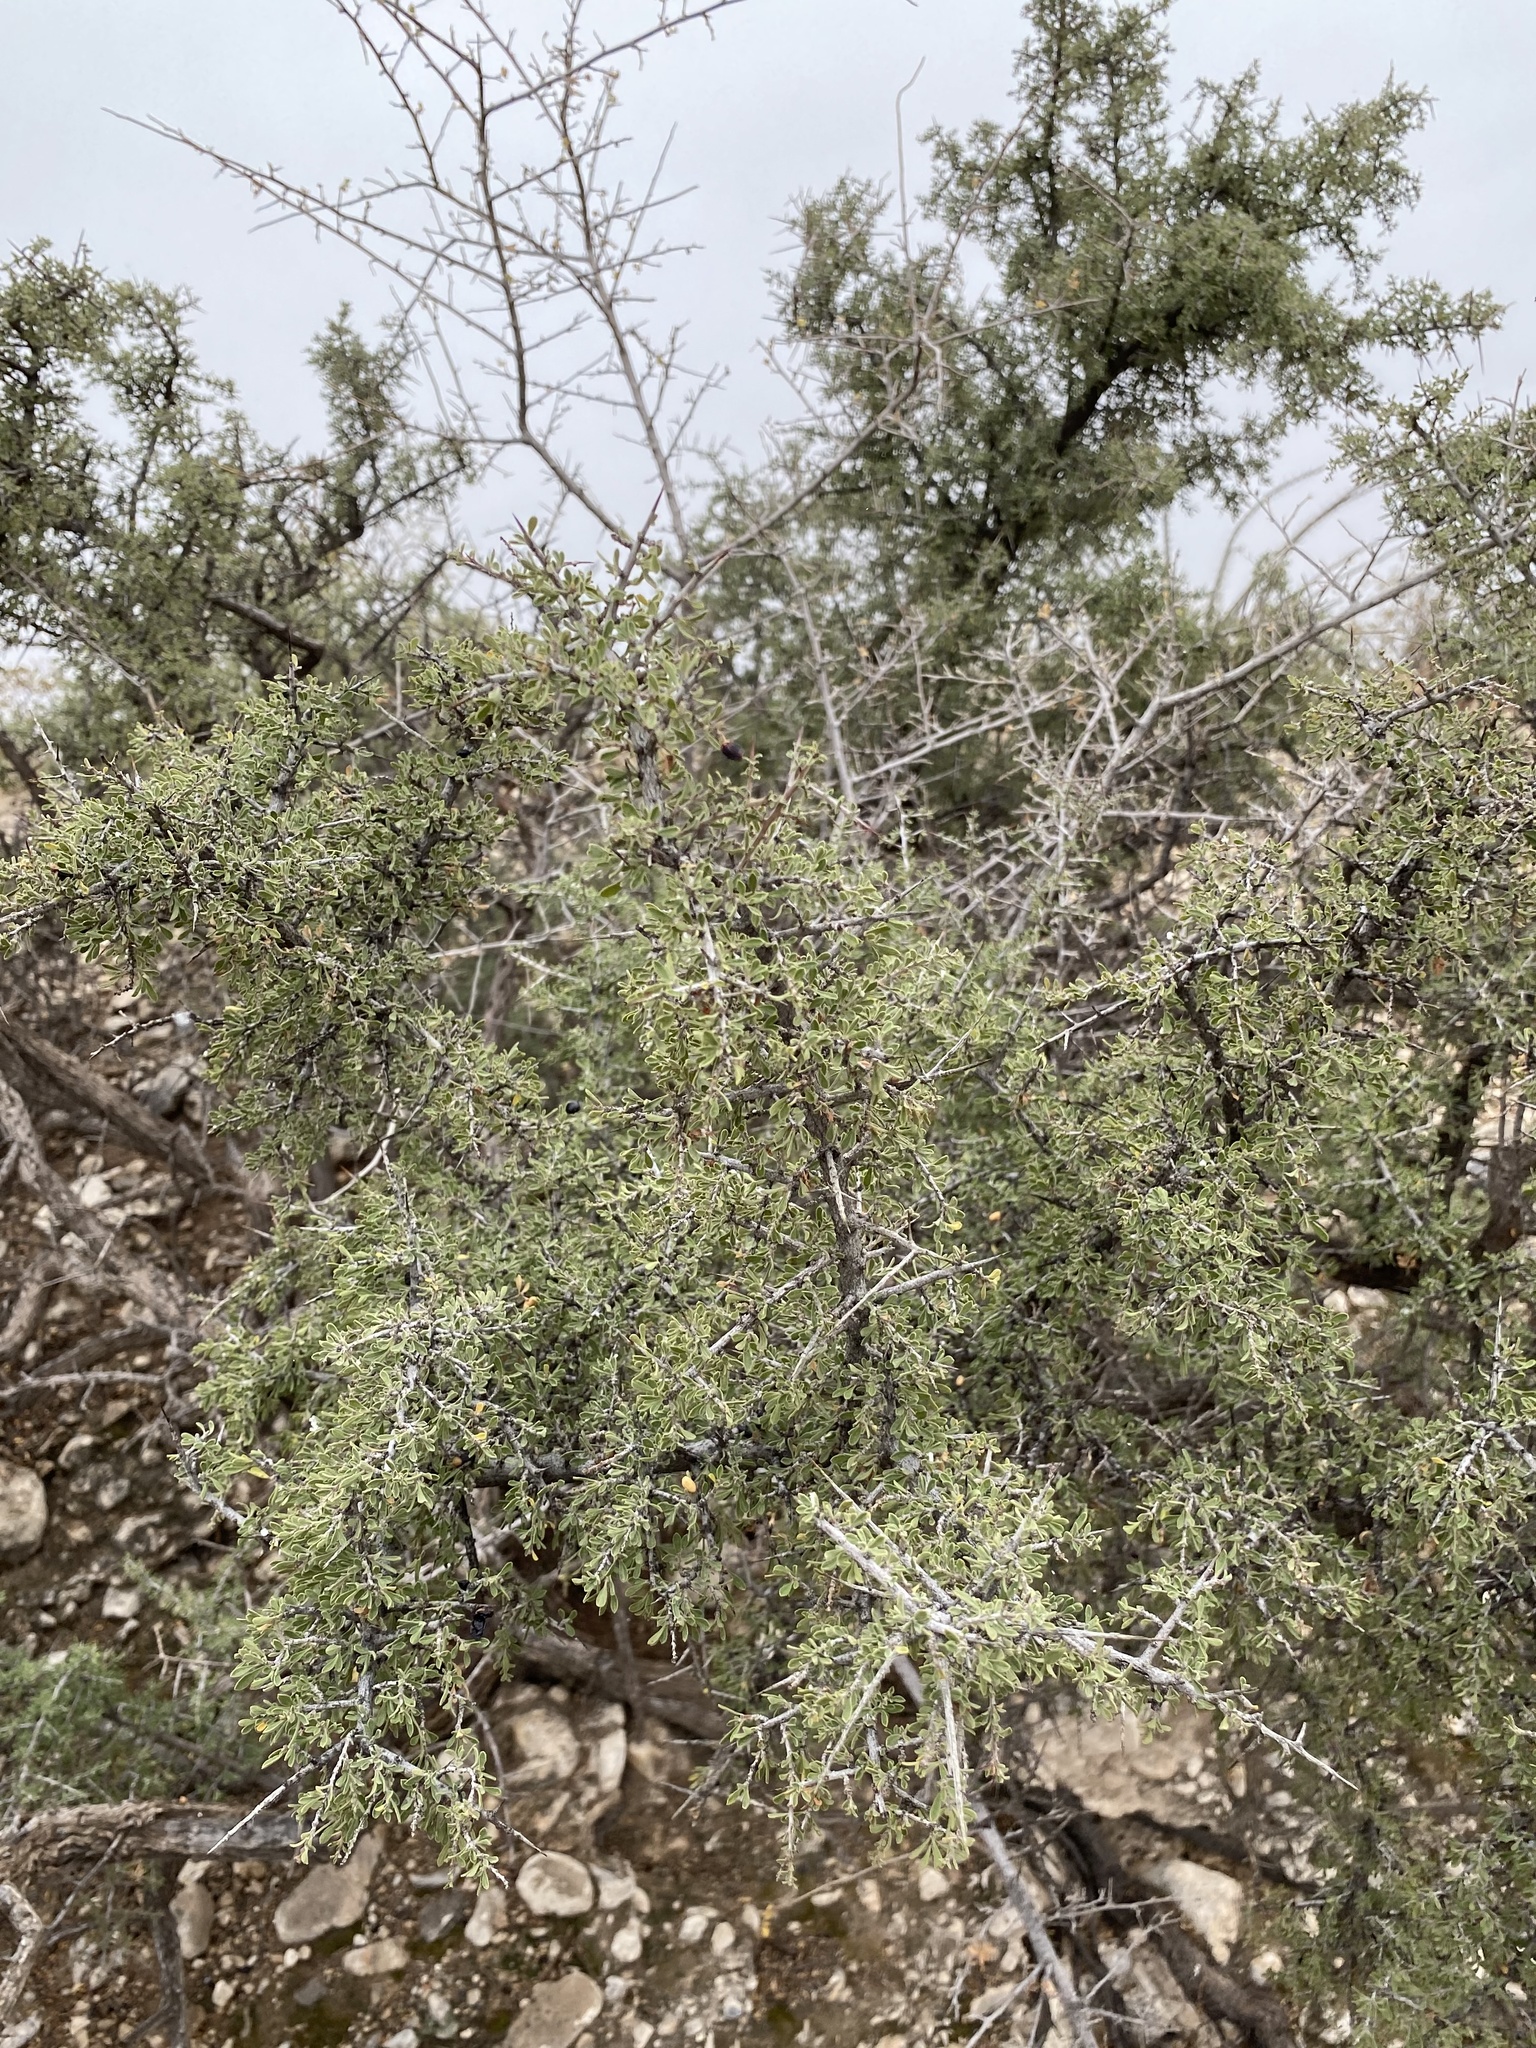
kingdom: Plantae
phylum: Tracheophyta
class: Magnoliopsida
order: Rosales
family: Rhamnaceae
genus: Condalia
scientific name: Condalia warnockii
